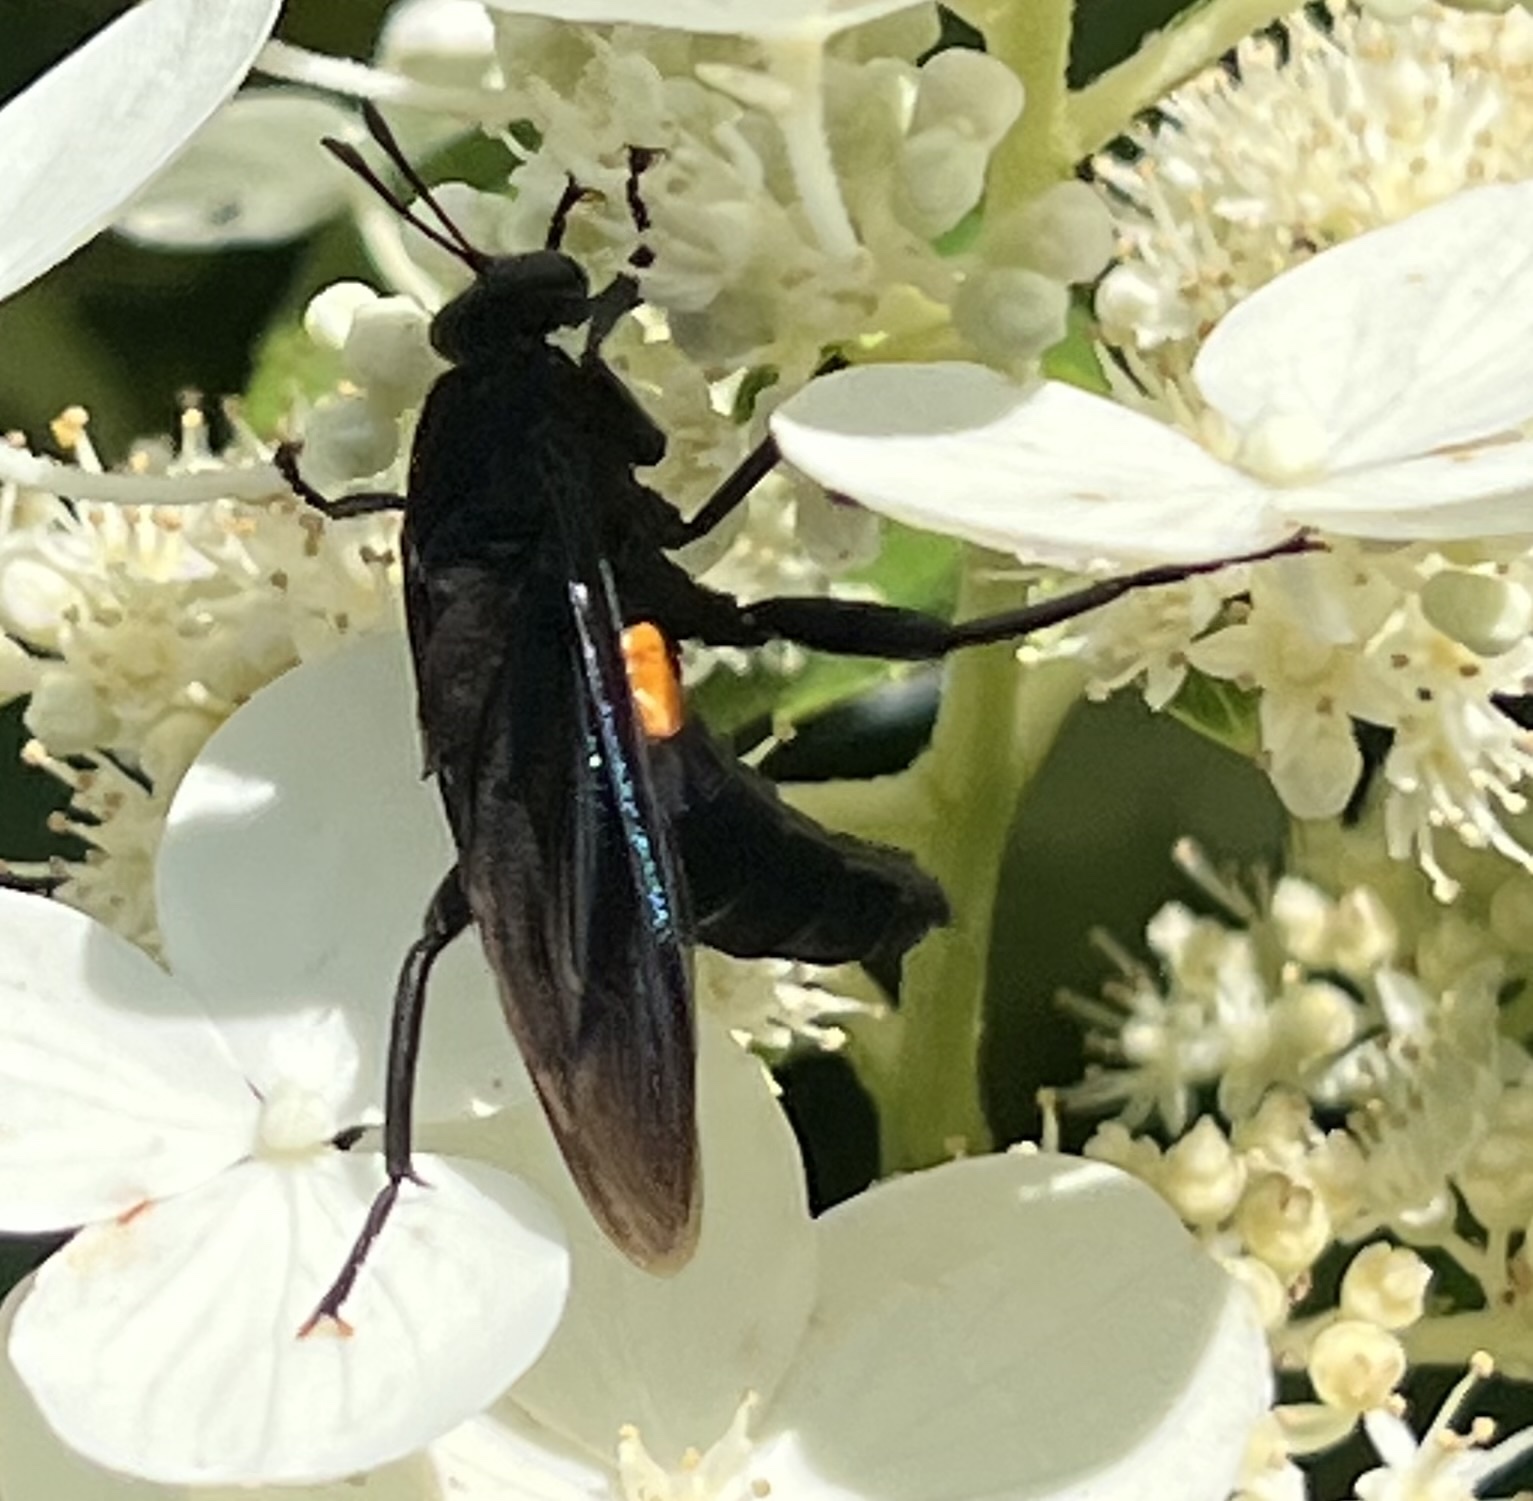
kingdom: Animalia
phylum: Arthropoda
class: Insecta
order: Diptera
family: Mydidae
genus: Mydas
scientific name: Mydas clavatus
